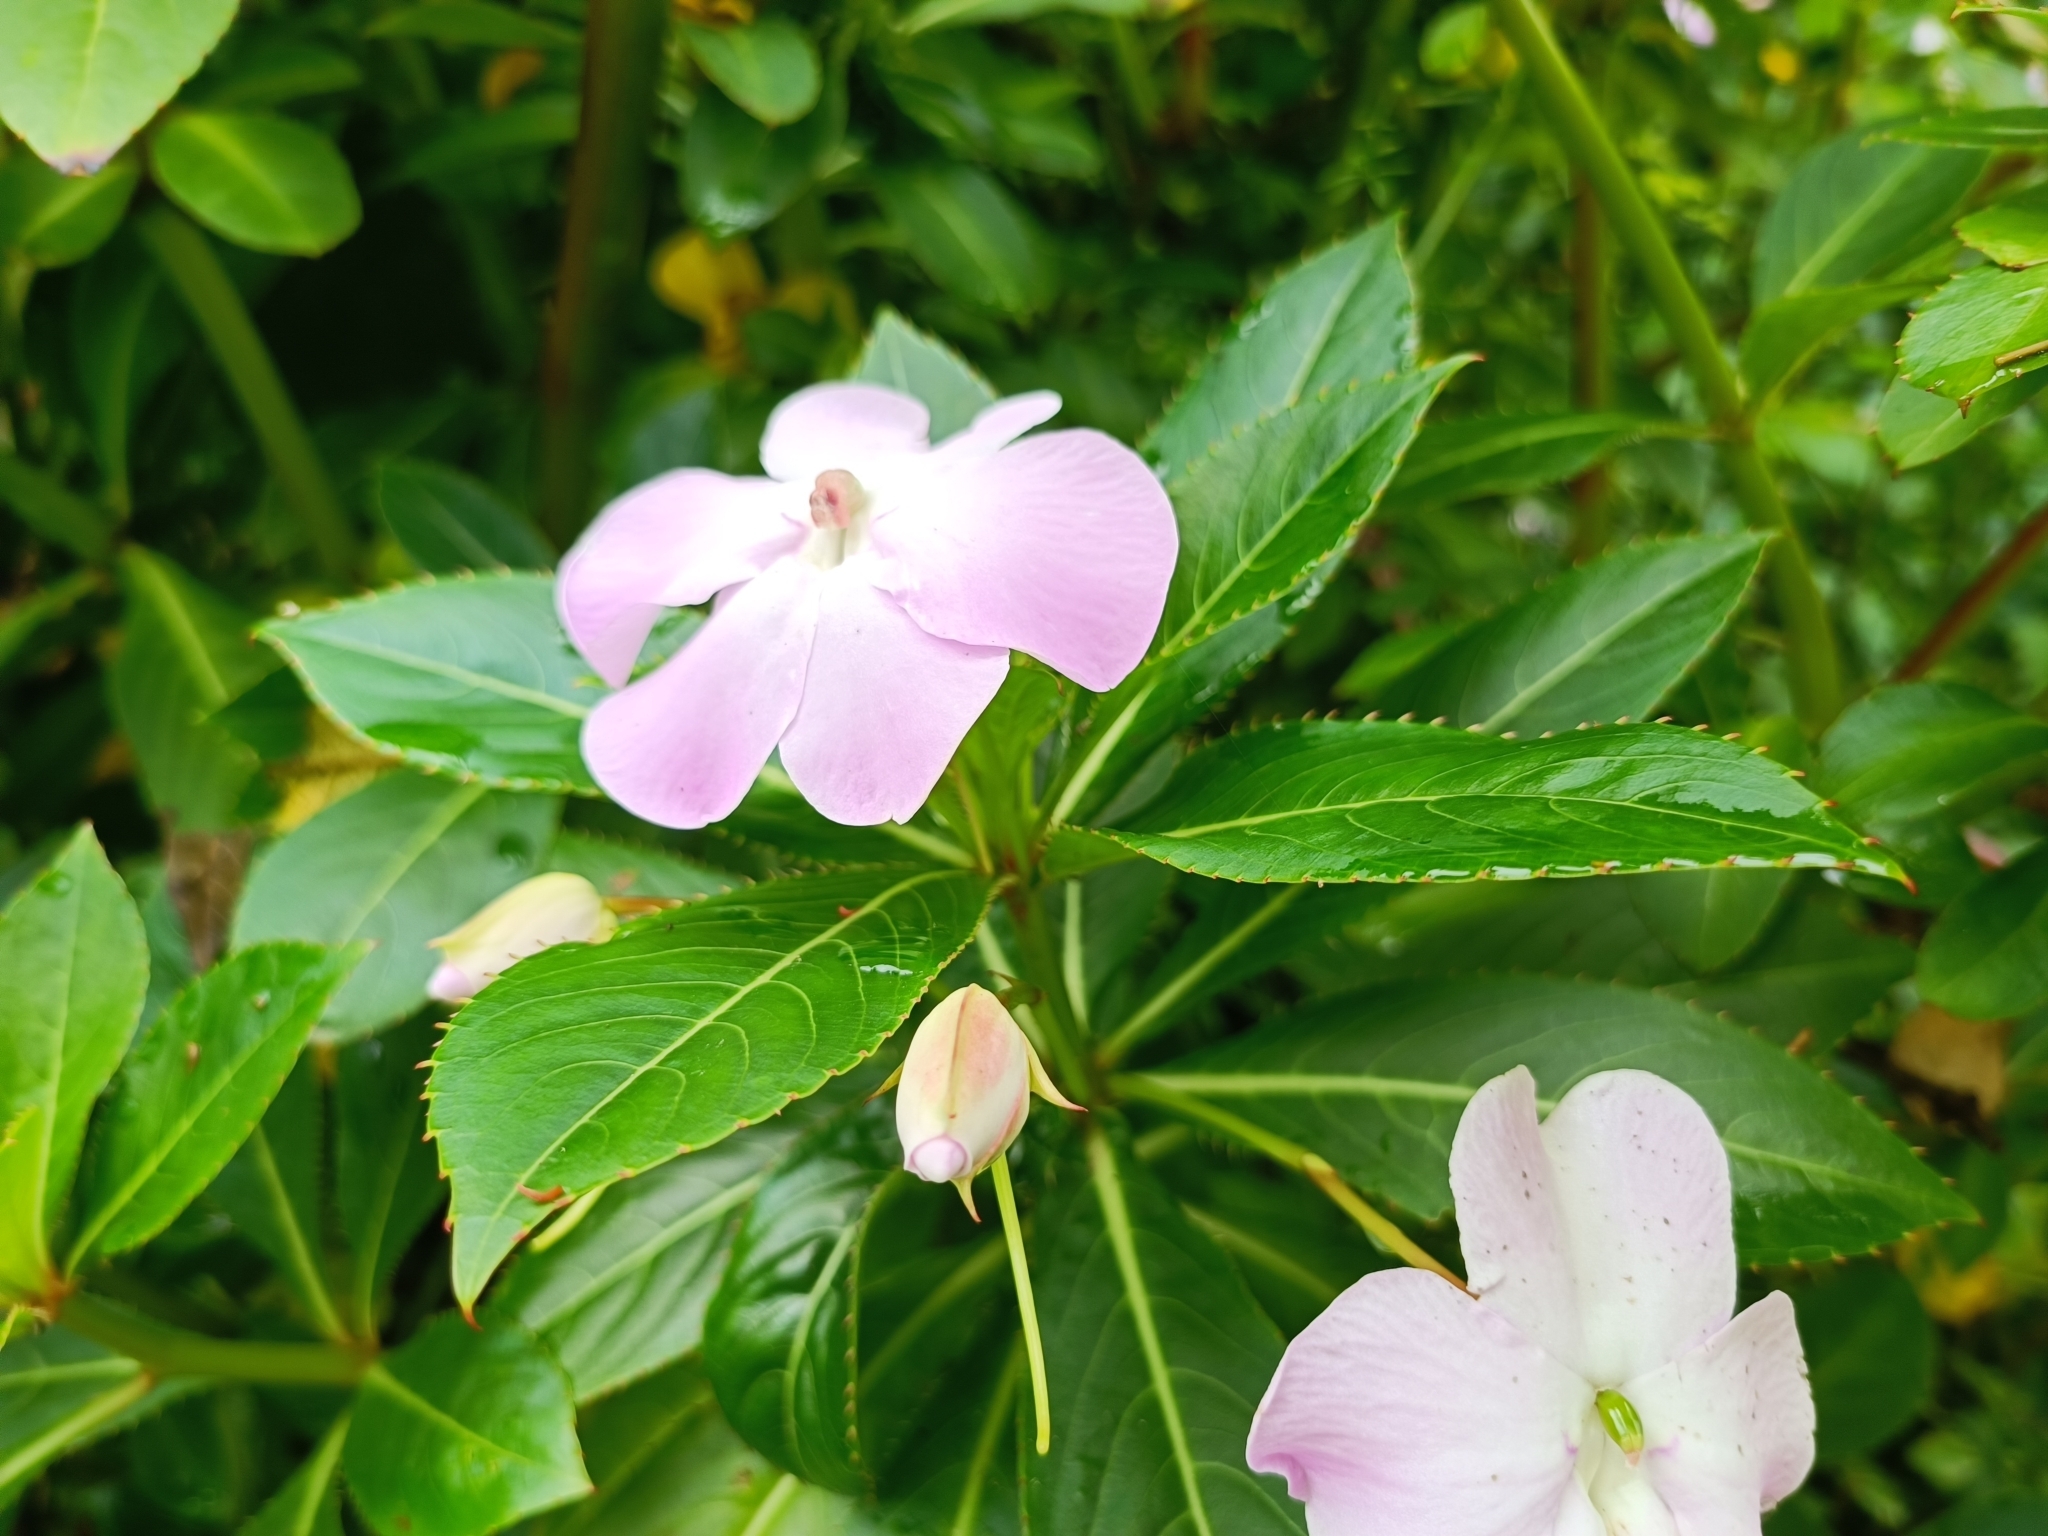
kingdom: Plantae
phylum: Tracheophyta
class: Magnoliopsida
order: Ericales
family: Balsaminaceae
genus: Impatiens
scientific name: Impatiens sodenii
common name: Oliver's touch-me-not
